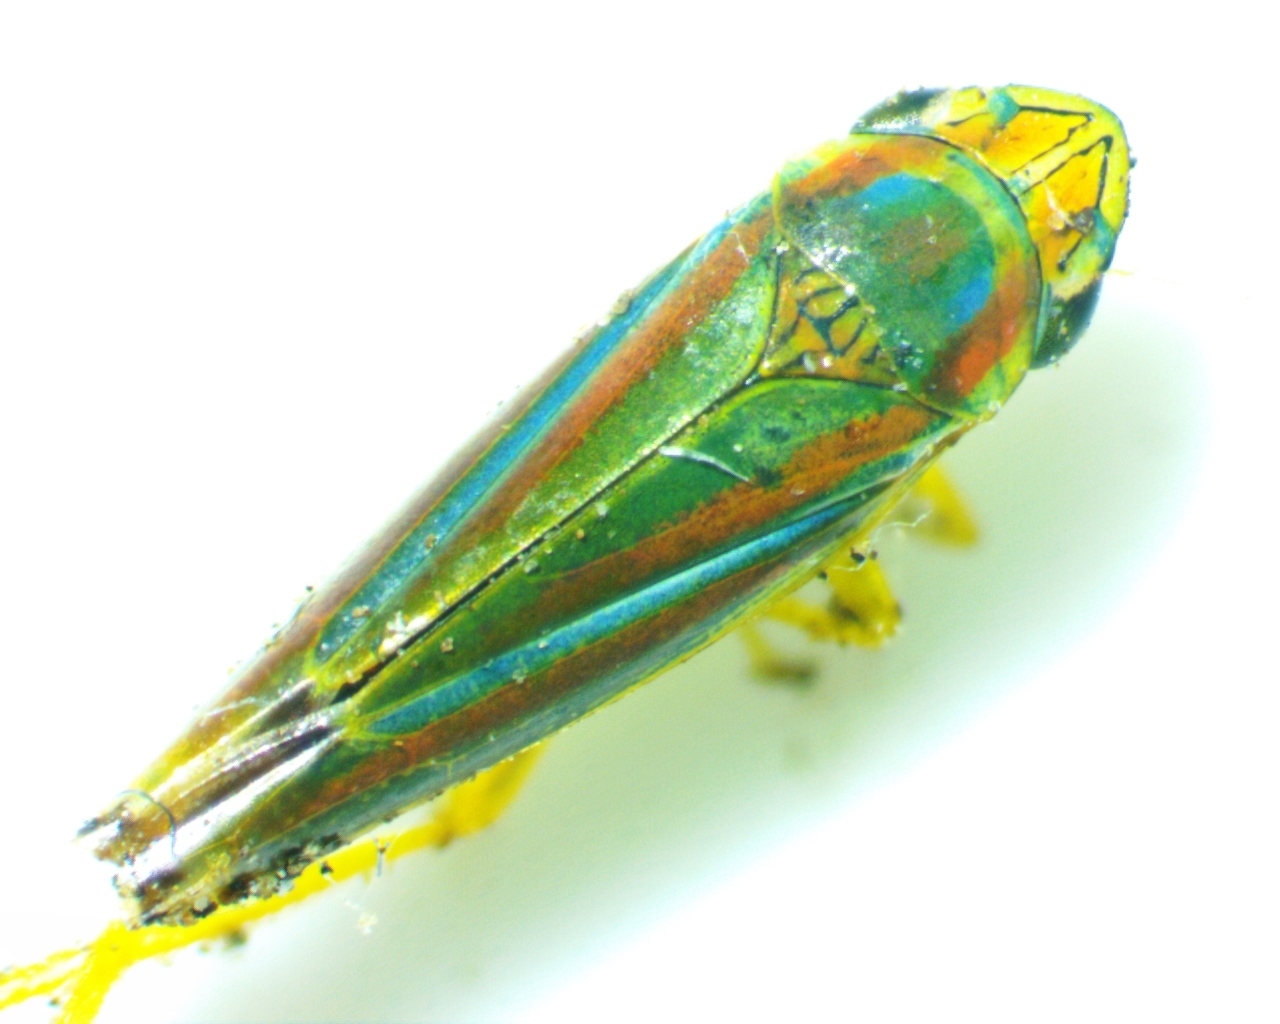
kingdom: Animalia
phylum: Arthropoda
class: Insecta
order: Hemiptera
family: Cicadellidae
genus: Graphocephala
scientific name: Graphocephala versuta
